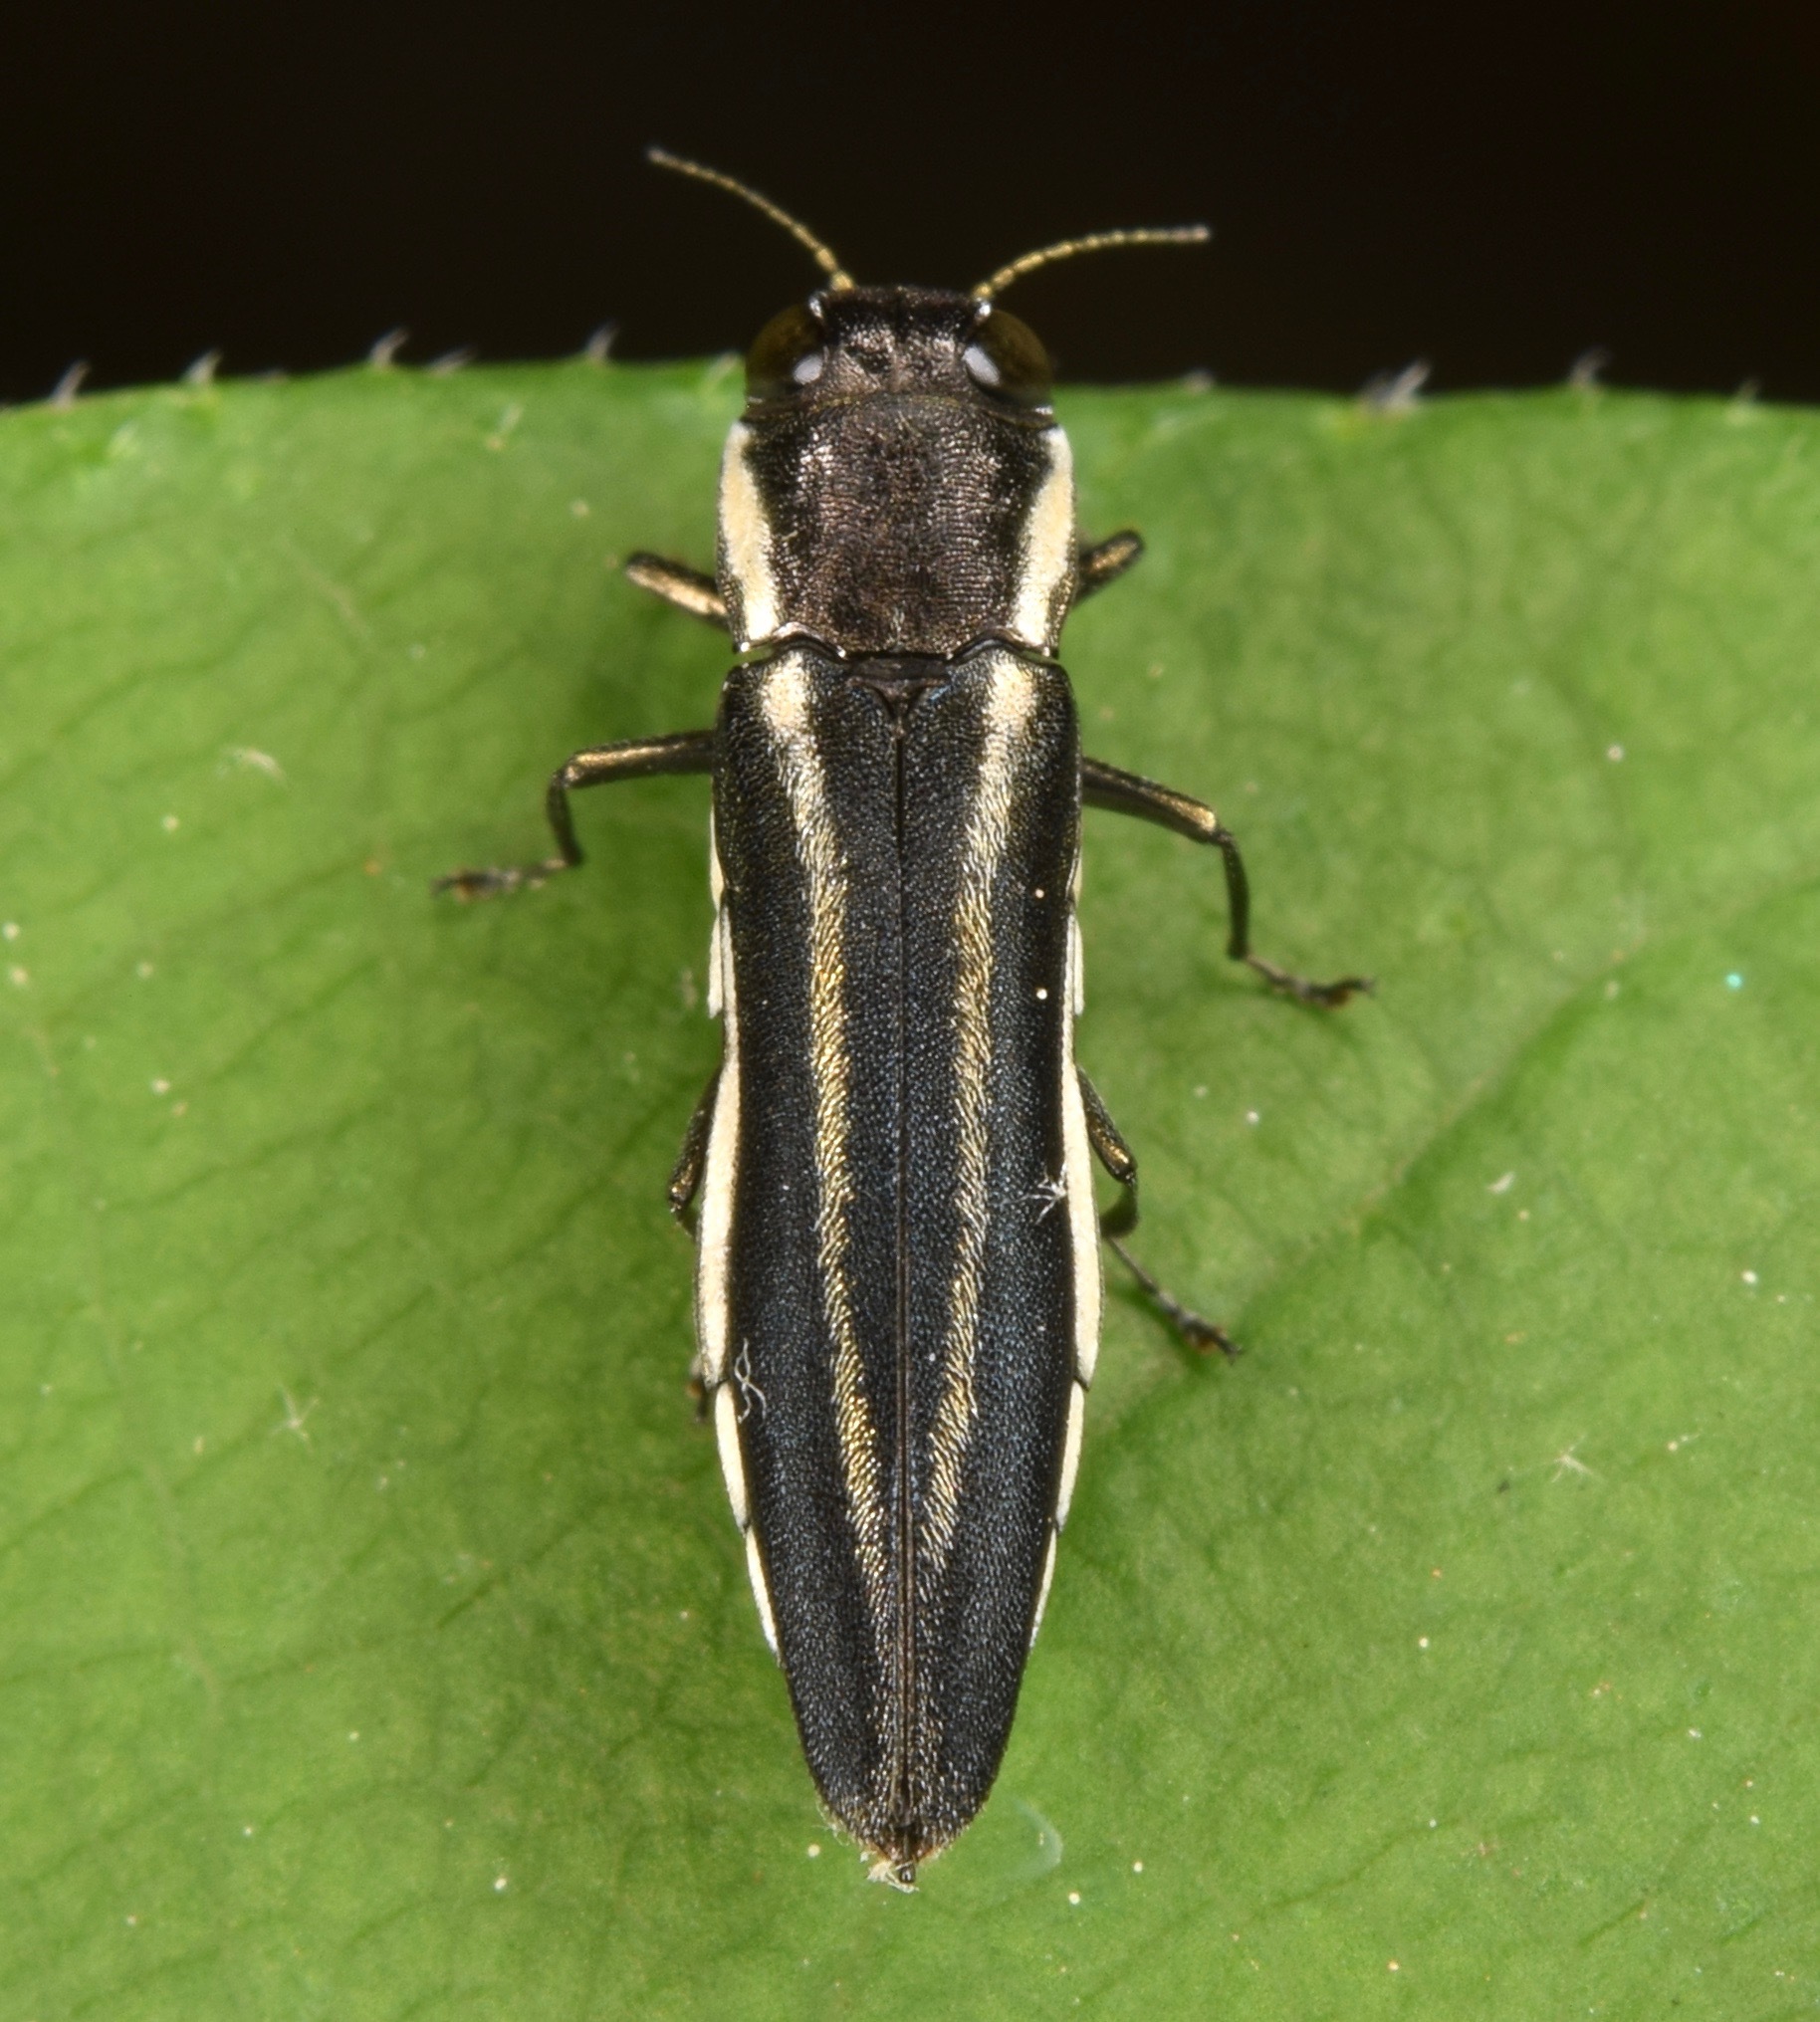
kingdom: Animalia
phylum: Arthropoda
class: Insecta
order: Coleoptera
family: Buprestidae
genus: Agrilus
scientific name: Agrilus bilineatus
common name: Two-lined chestnut borer
